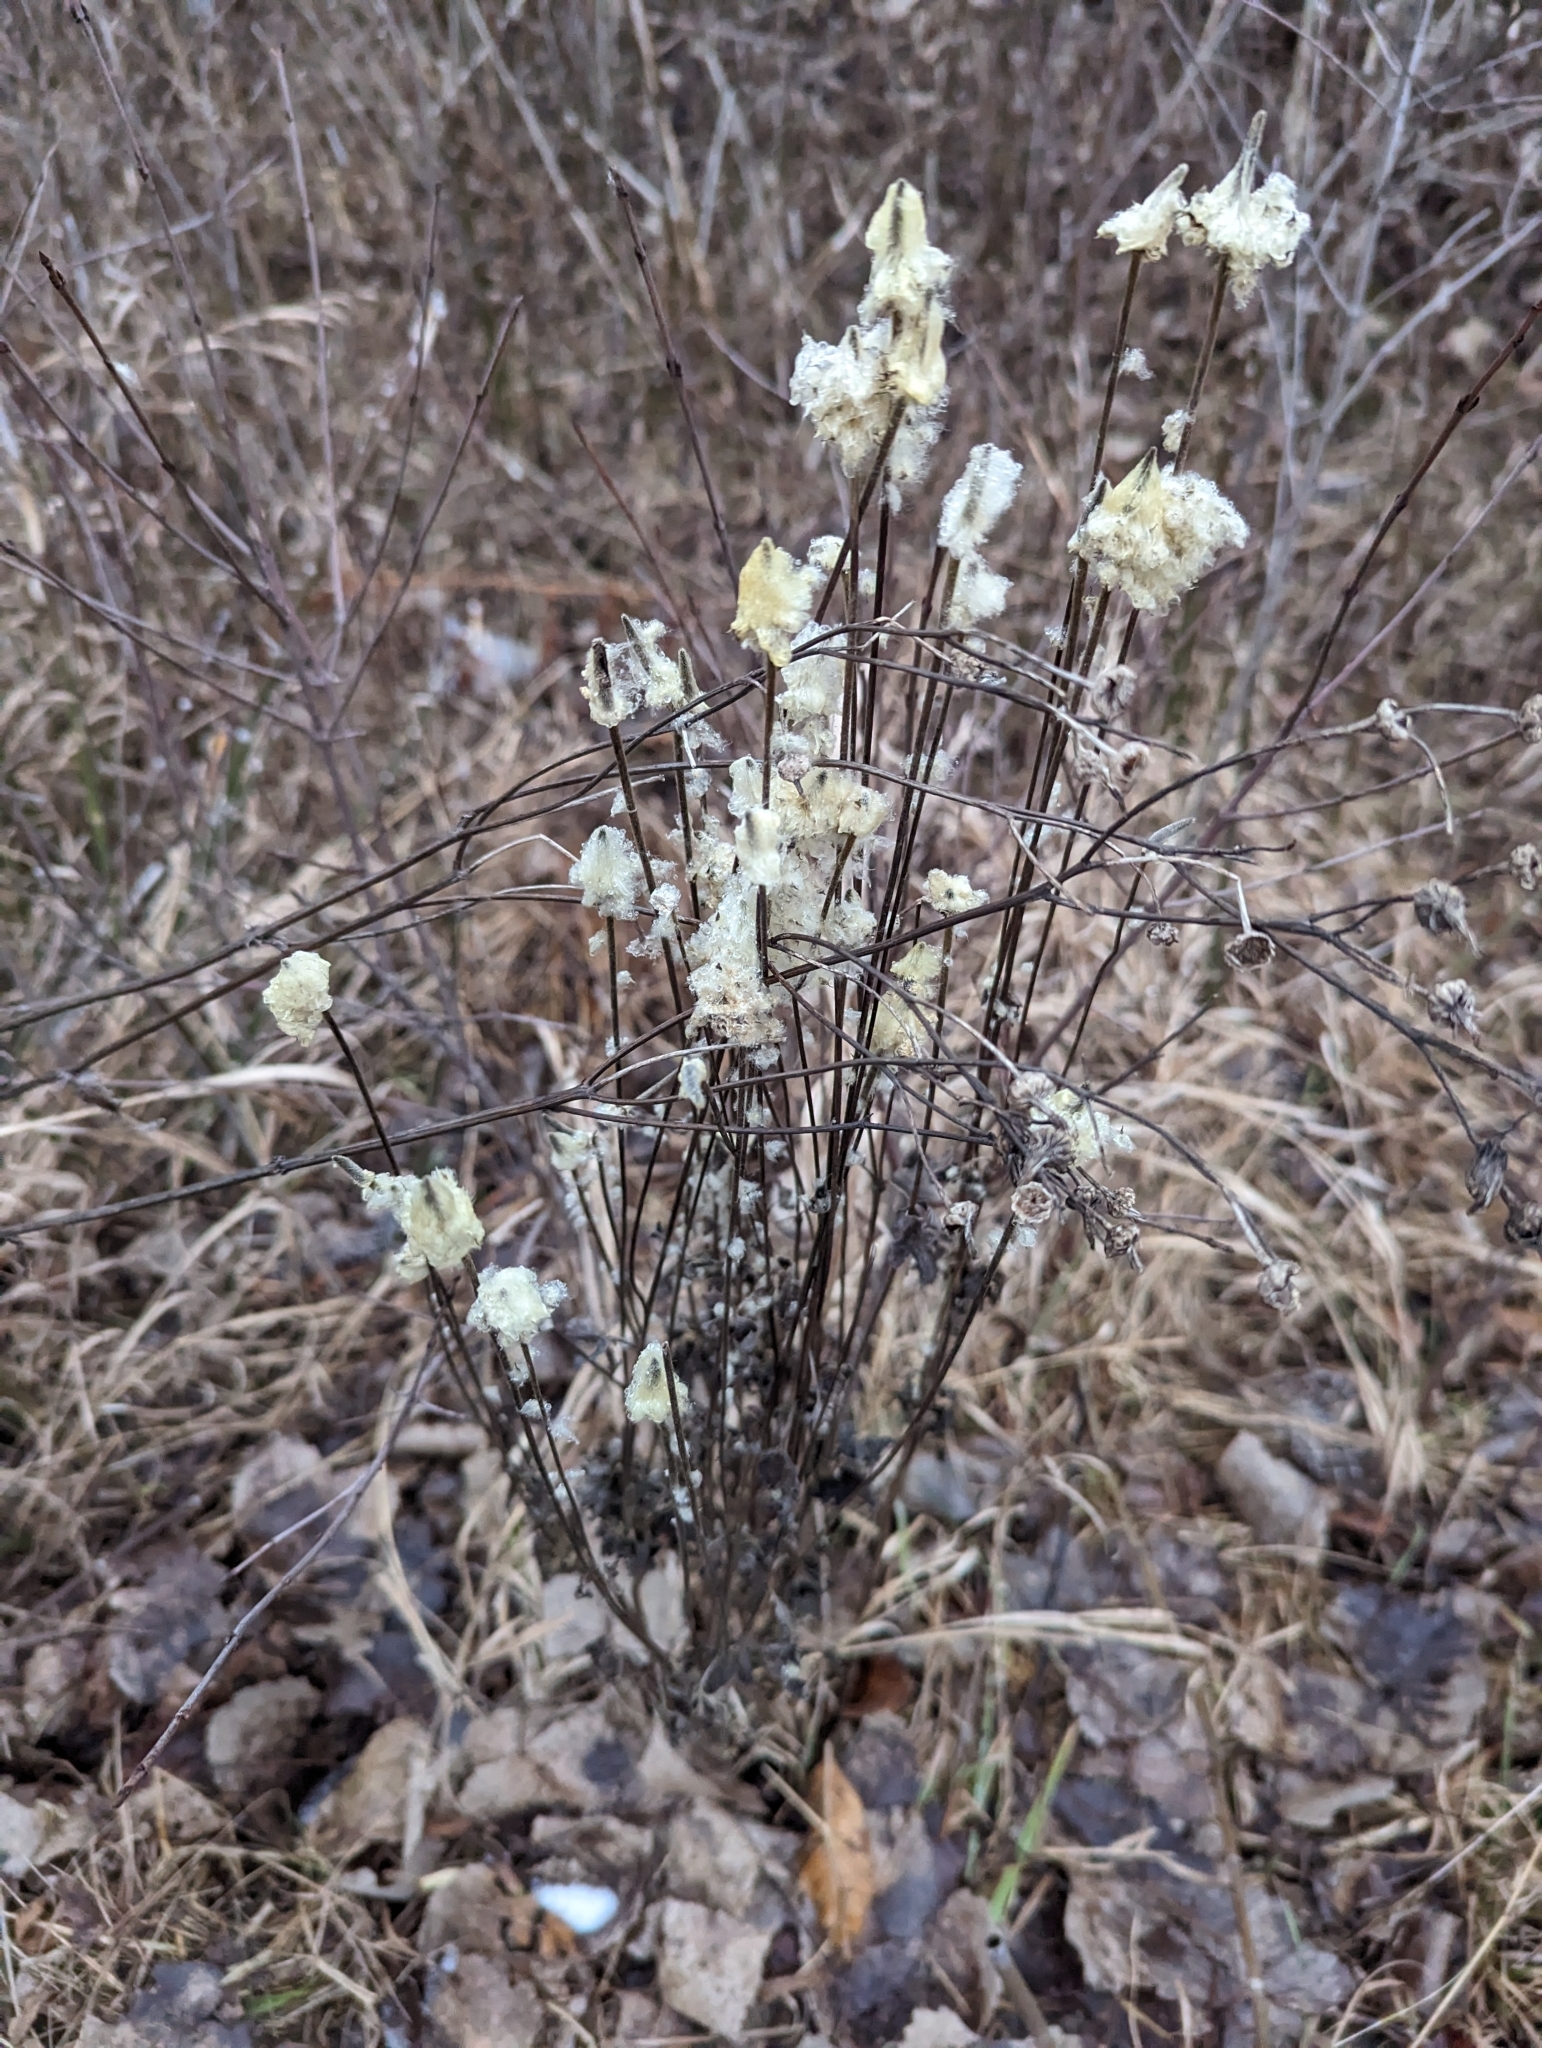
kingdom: Plantae
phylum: Tracheophyta
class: Magnoliopsida
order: Ranunculales
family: Ranunculaceae
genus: Anemone
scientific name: Anemone virginiana
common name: Tall anemone
